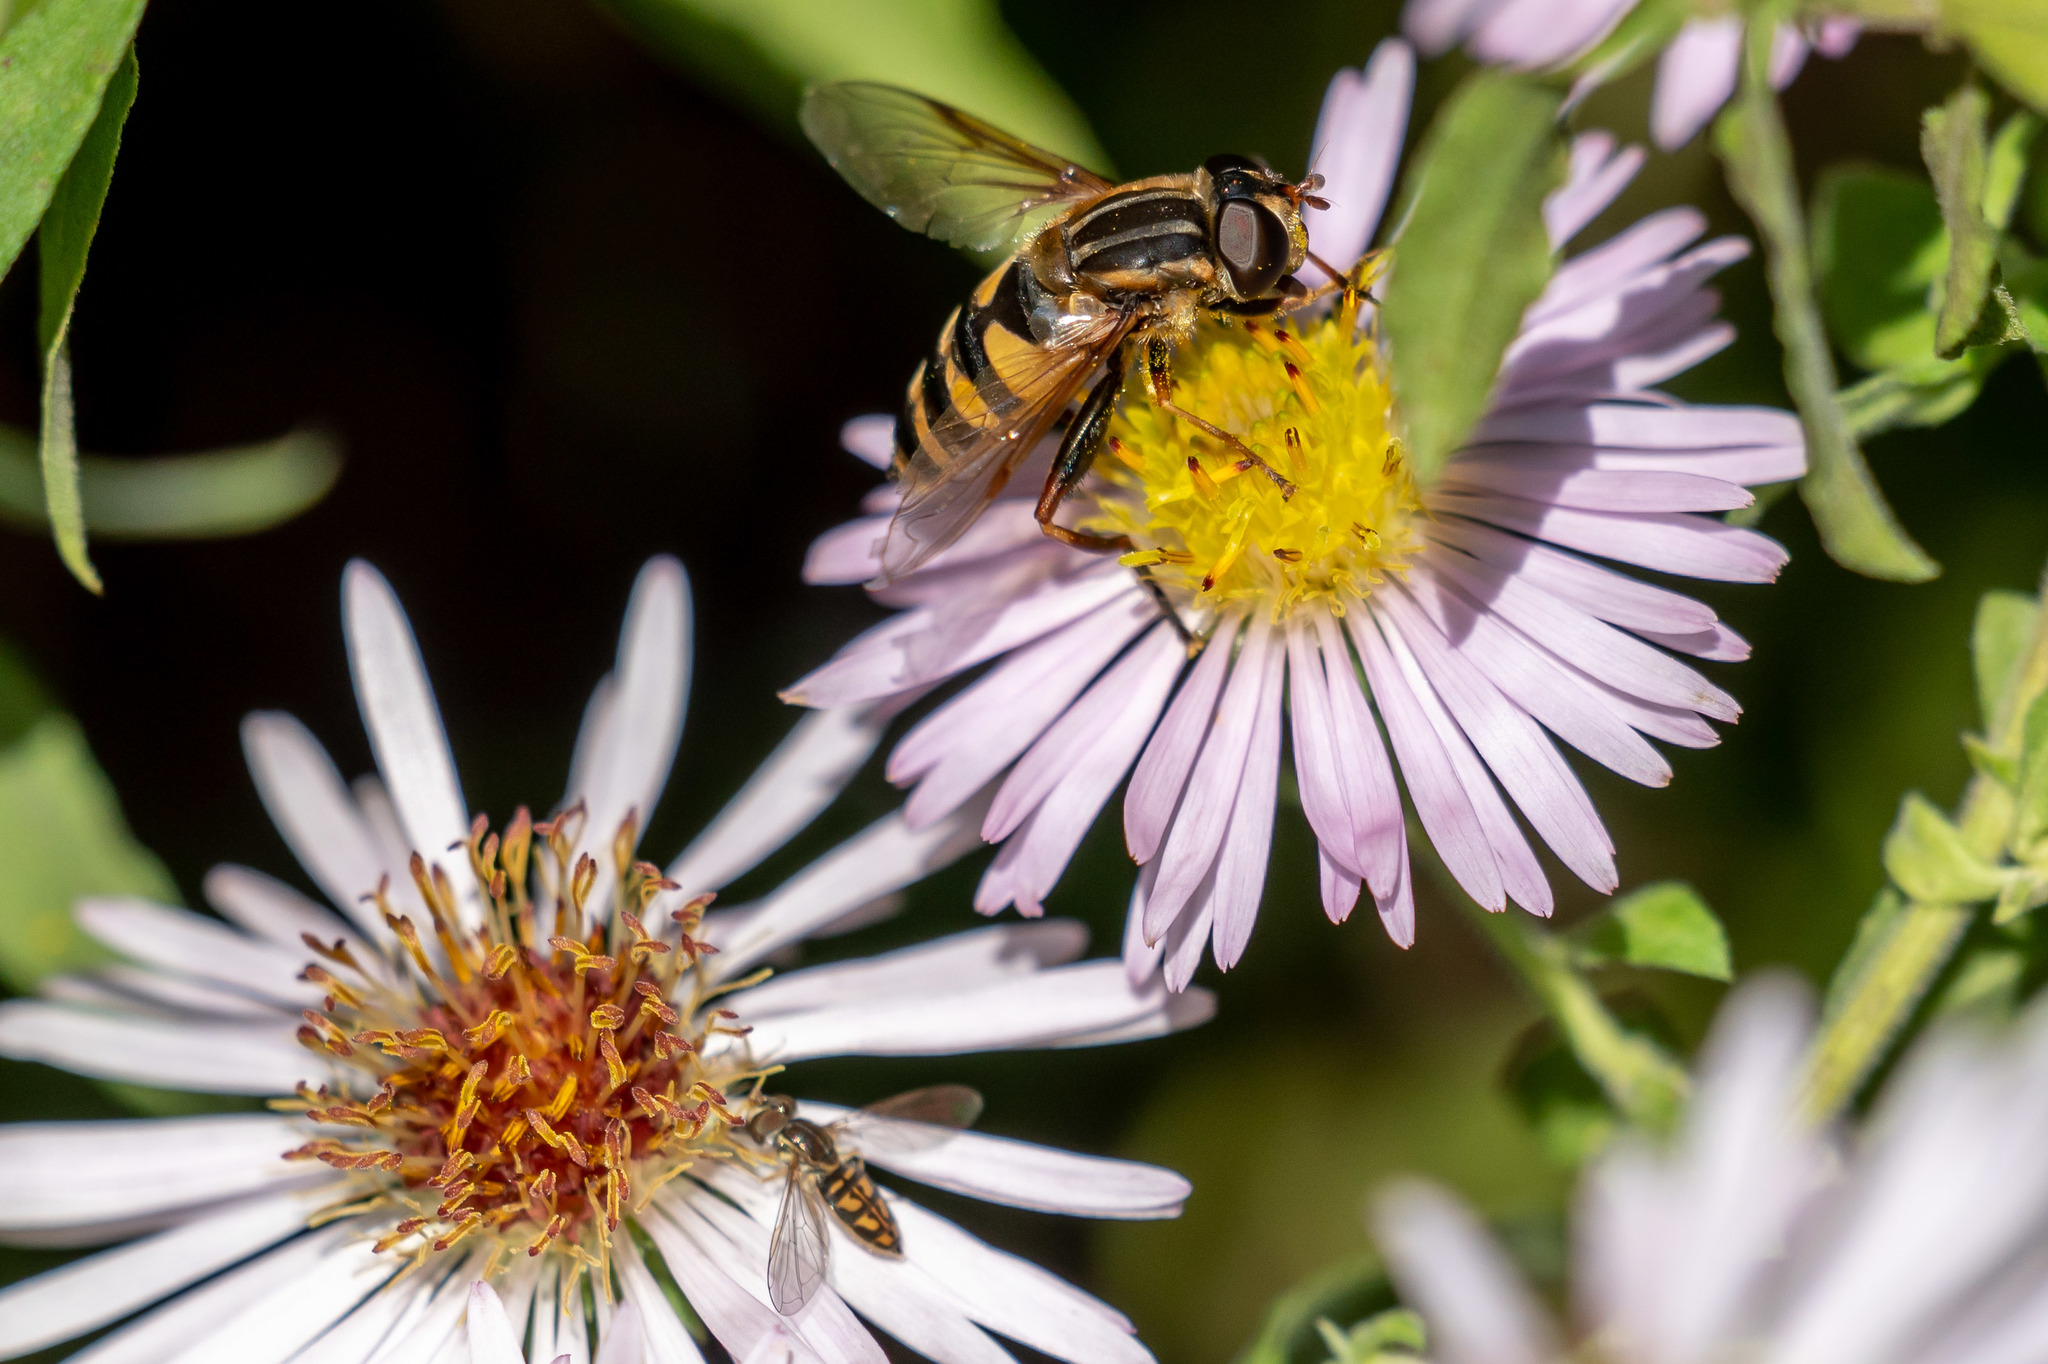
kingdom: Animalia
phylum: Arthropoda
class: Insecta
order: Diptera
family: Syrphidae
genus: Helophilus
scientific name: Helophilus fasciatus
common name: Narrow-headed marsh fly
